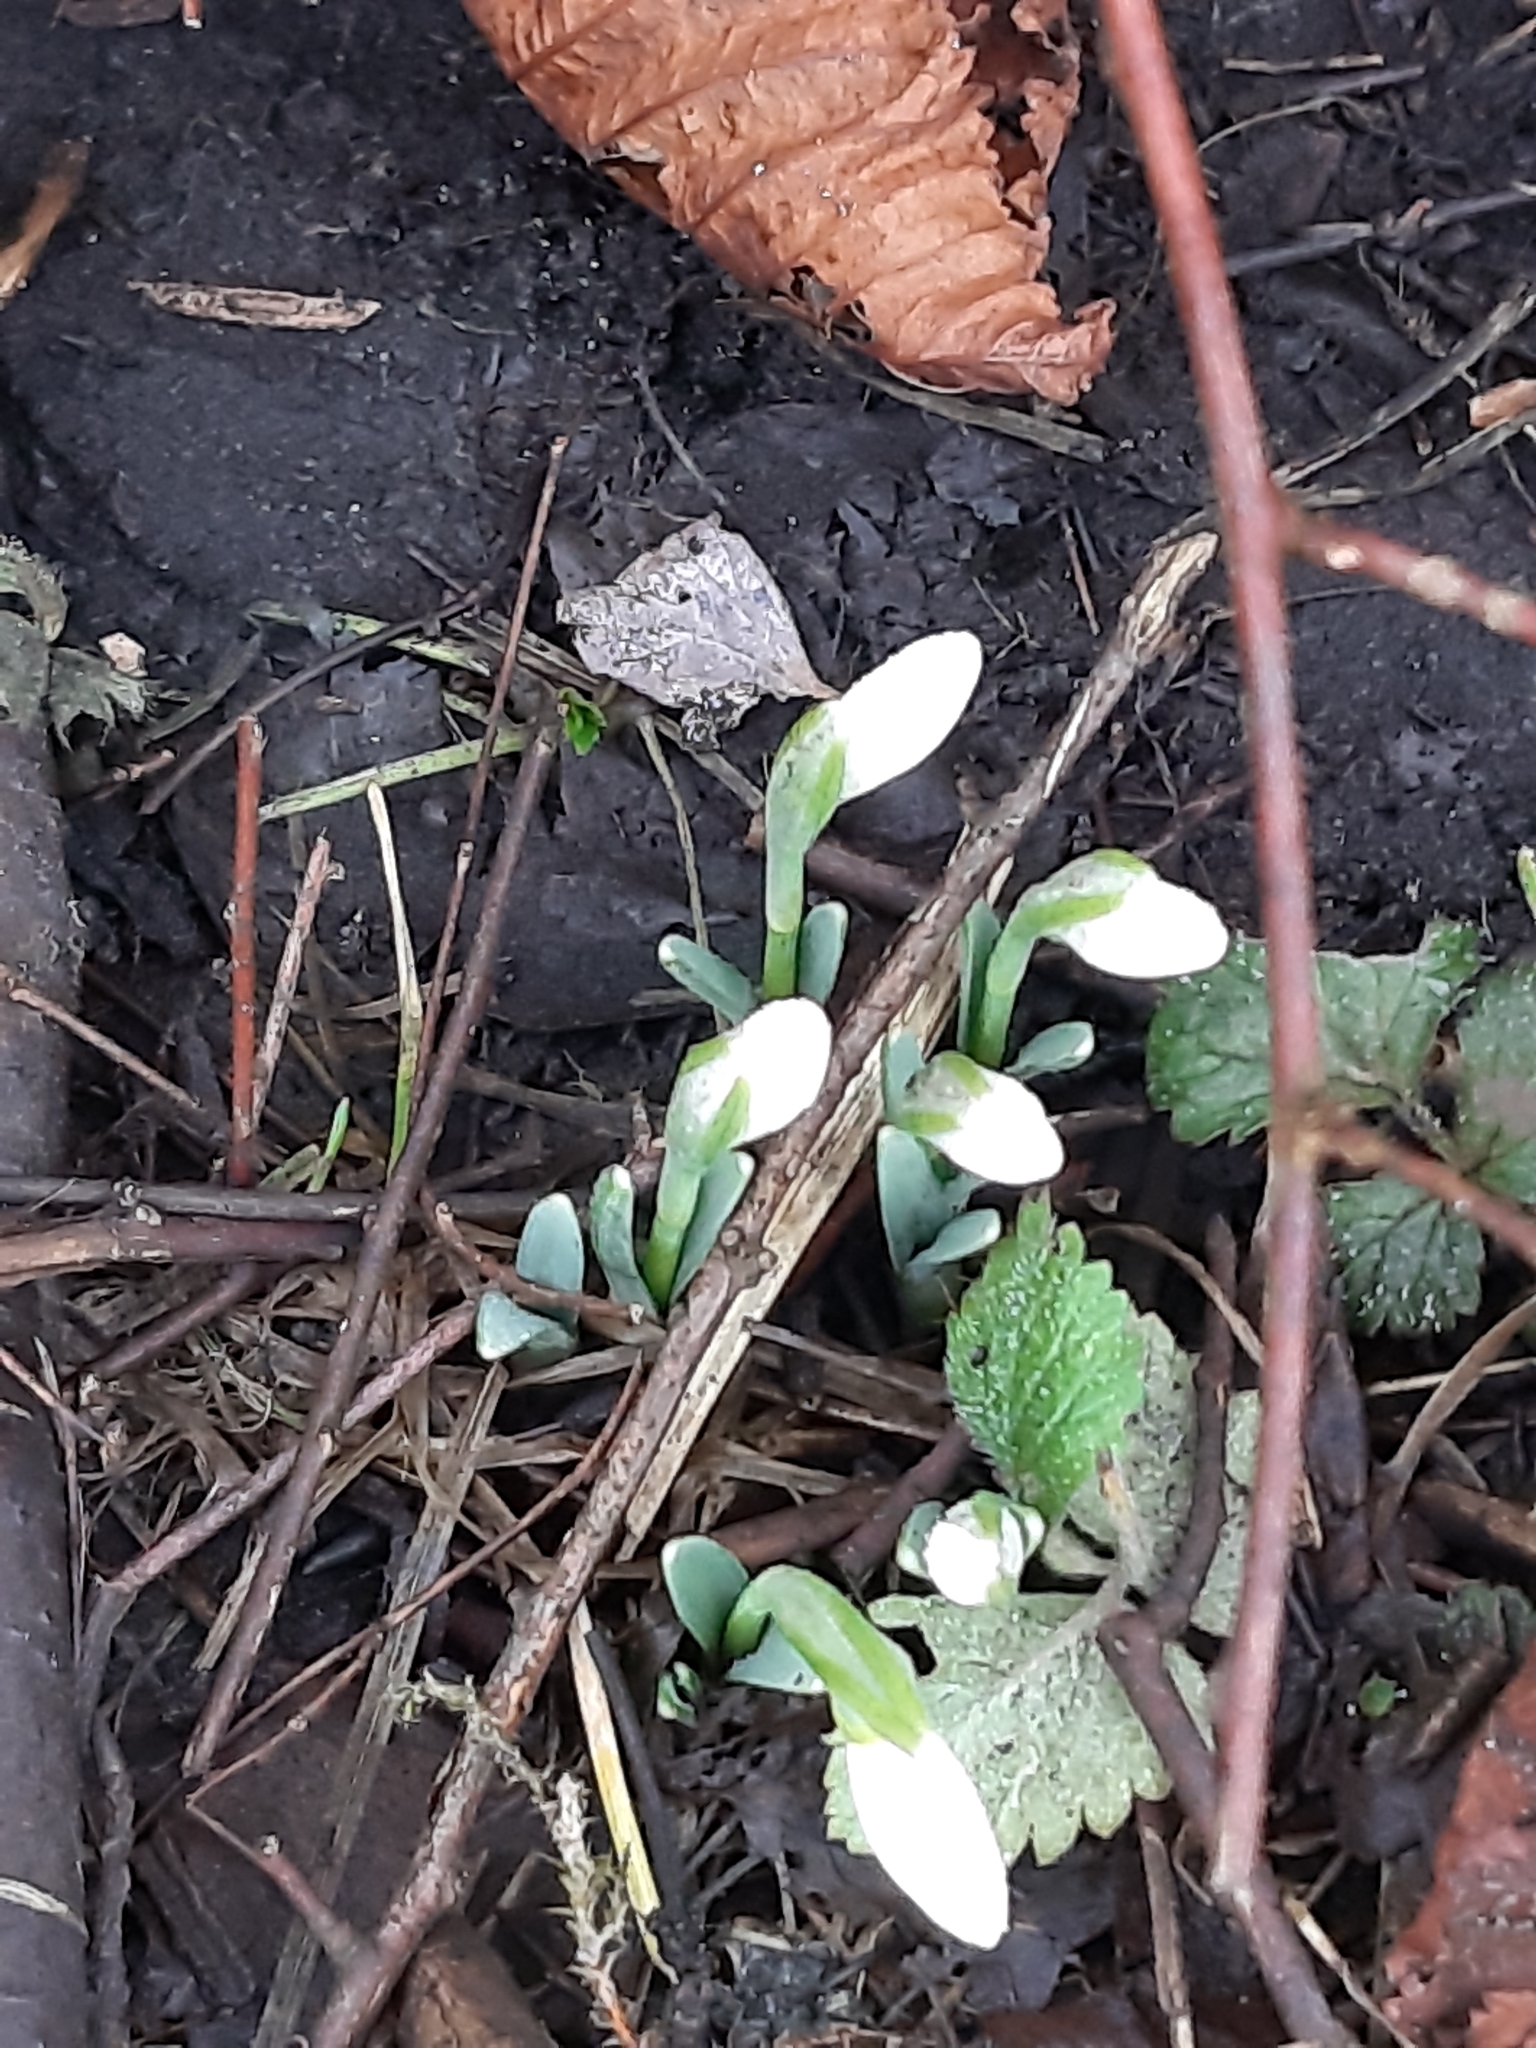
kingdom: Plantae
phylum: Tracheophyta
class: Liliopsida
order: Asparagales
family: Amaryllidaceae
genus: Galanthus
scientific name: Galanthus nivalis
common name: Snowdrop
